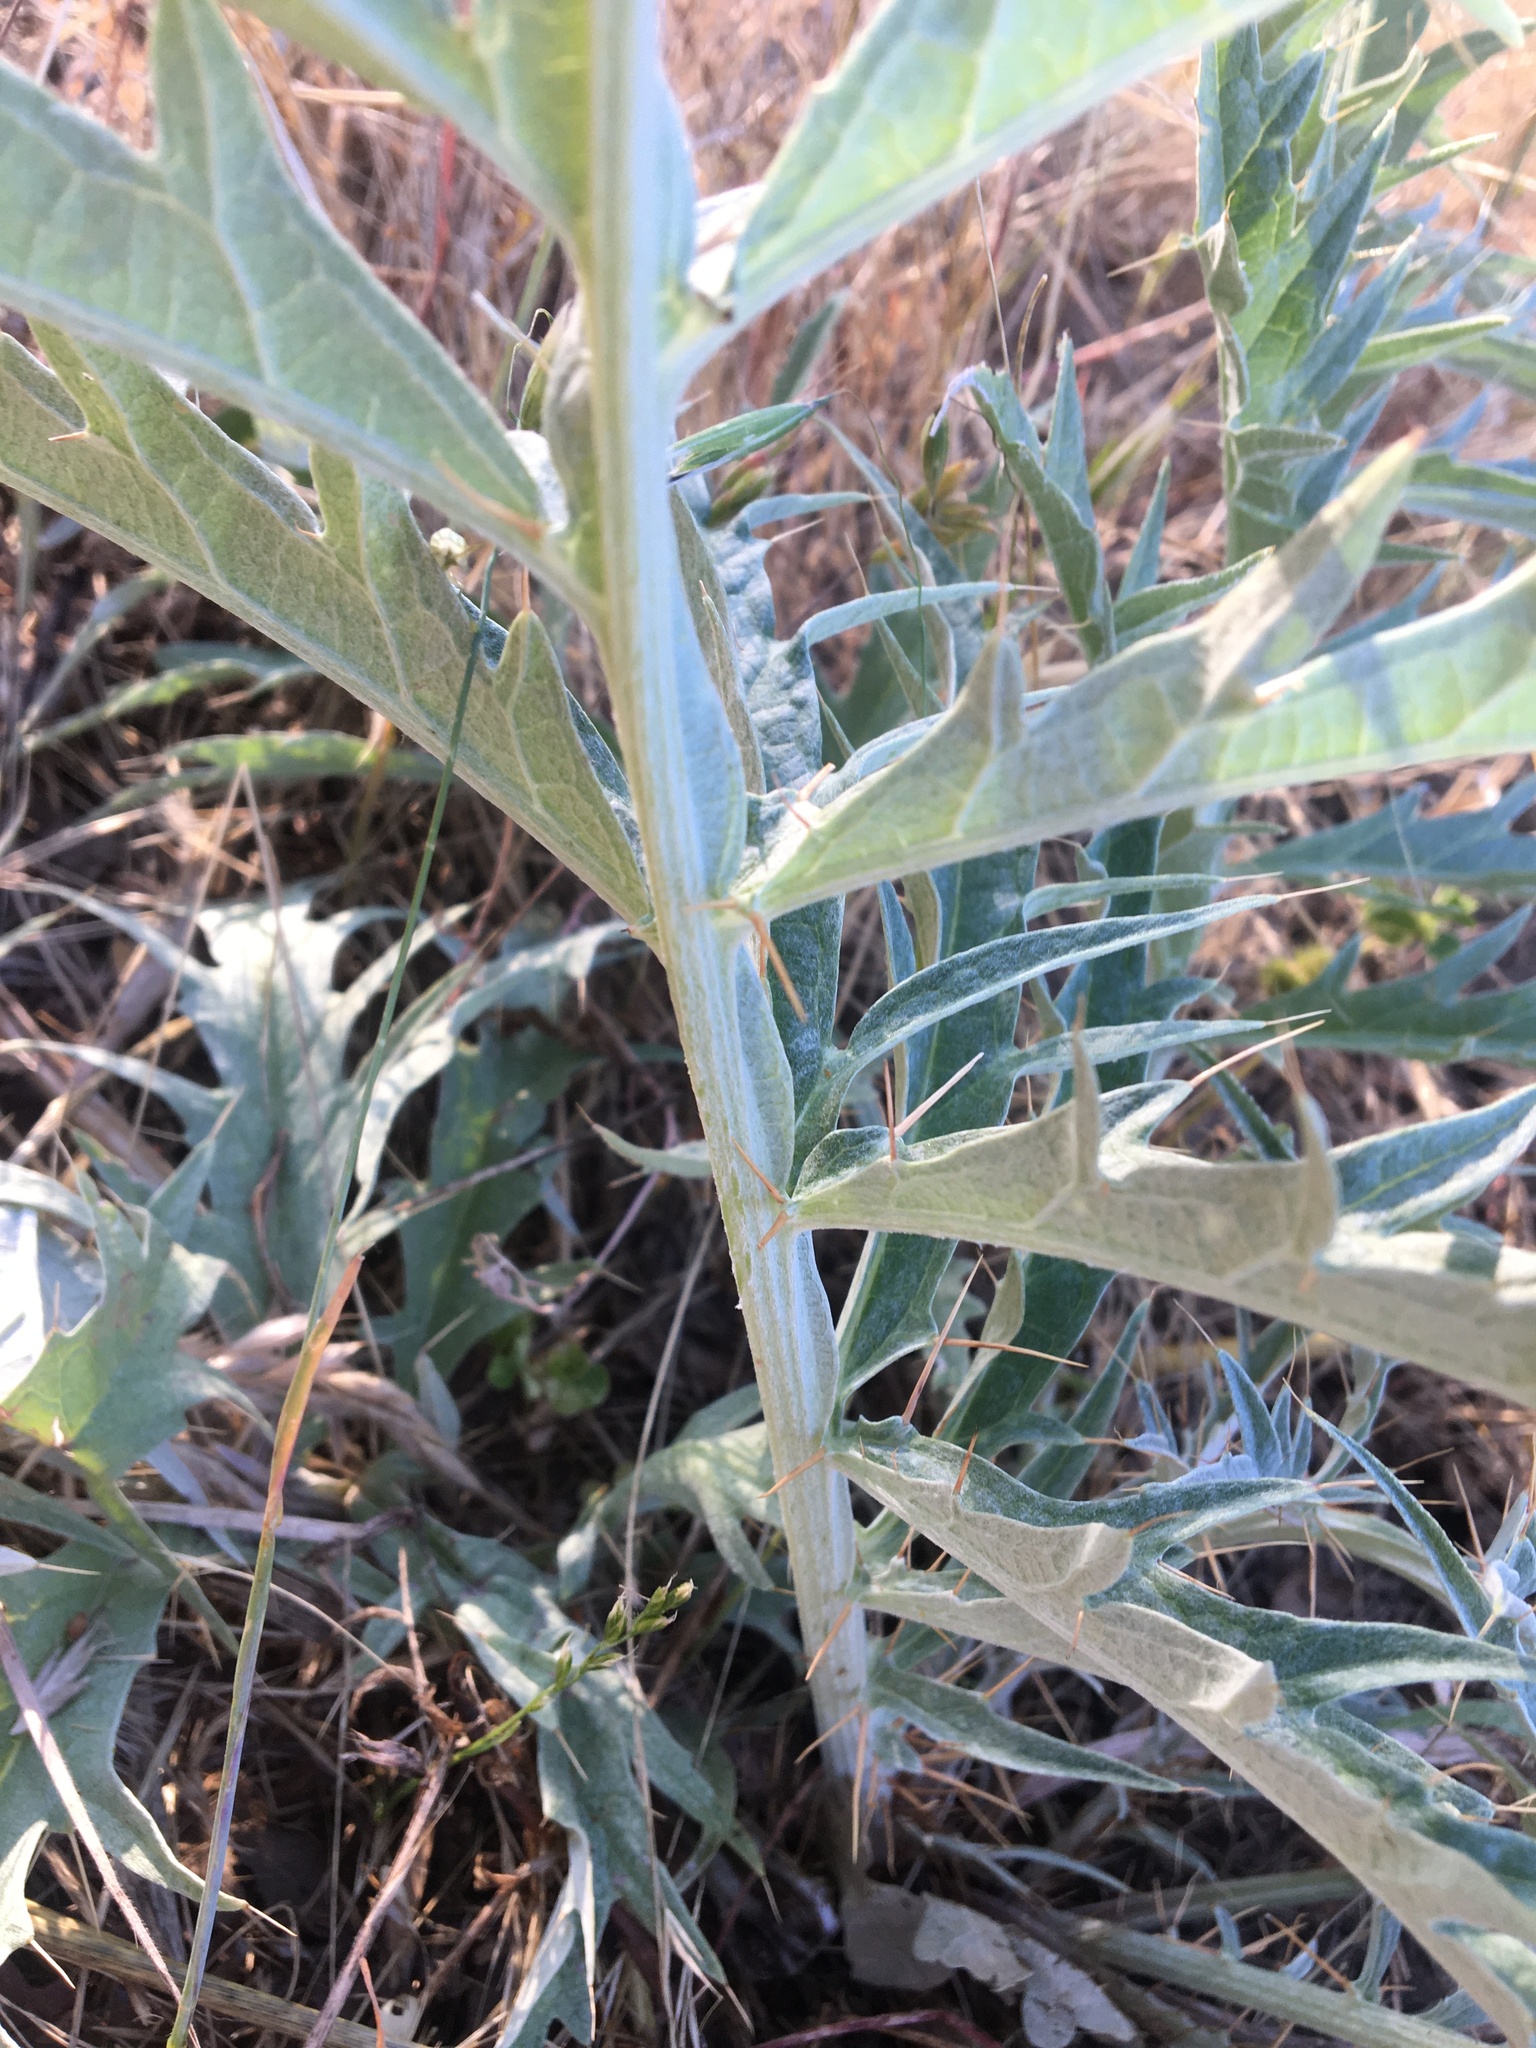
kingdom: Plantae
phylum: Tracheophyta
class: Magnoliopsida
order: Asterales
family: Asteraceae
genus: Cynara
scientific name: Cynara cardunculus
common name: Globe artichoke
